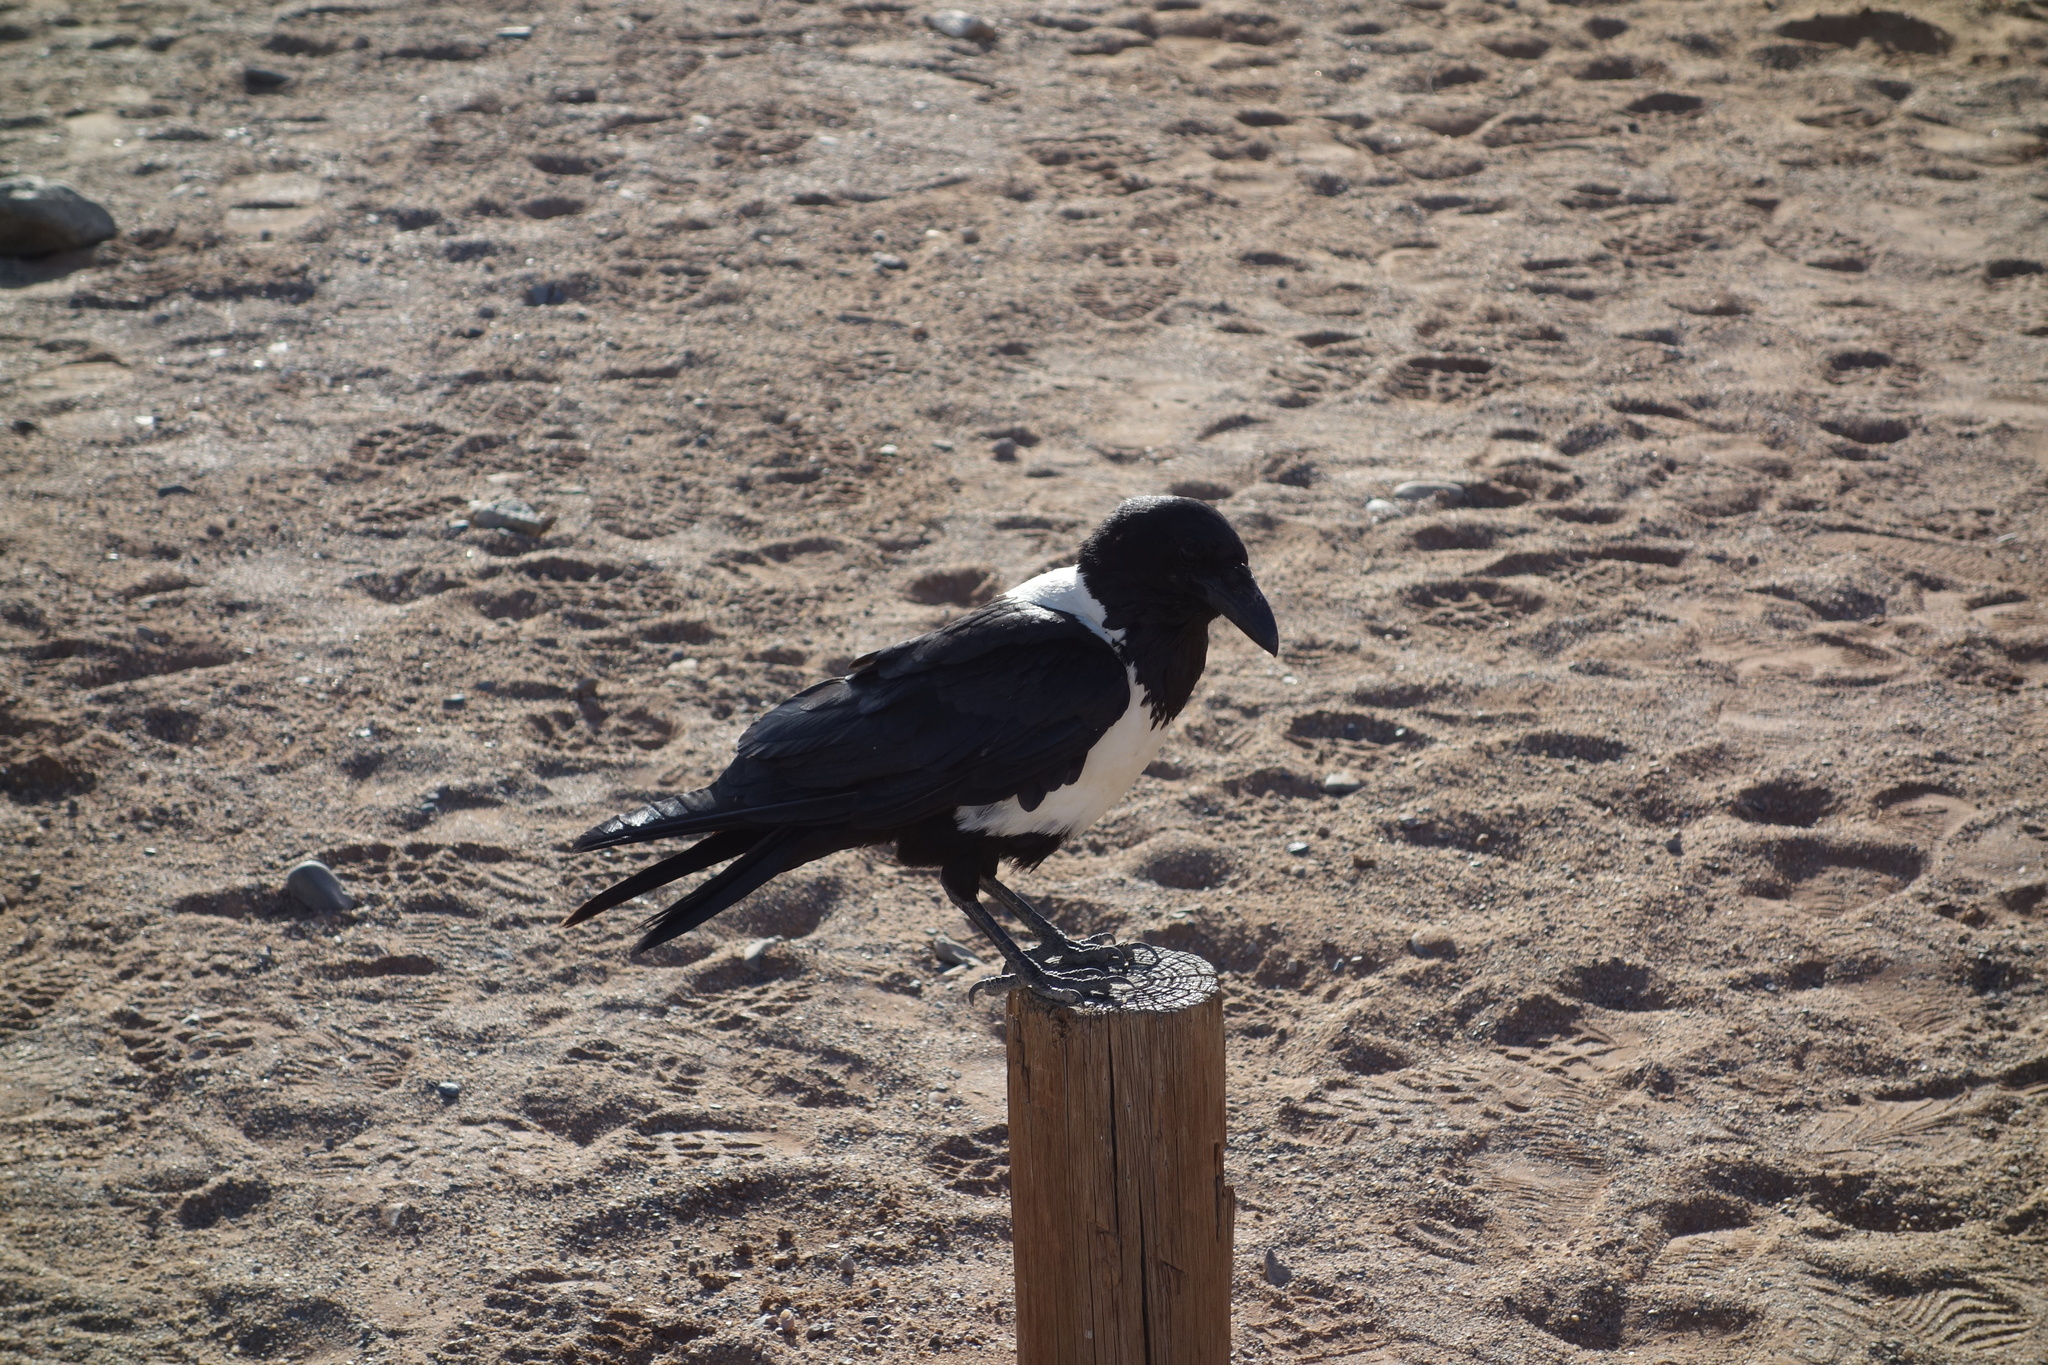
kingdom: Animalia
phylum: Chordata
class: Aves
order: Passeriformes
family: Corvidae
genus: Corvus
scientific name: Corvus albus
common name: Pied crow
